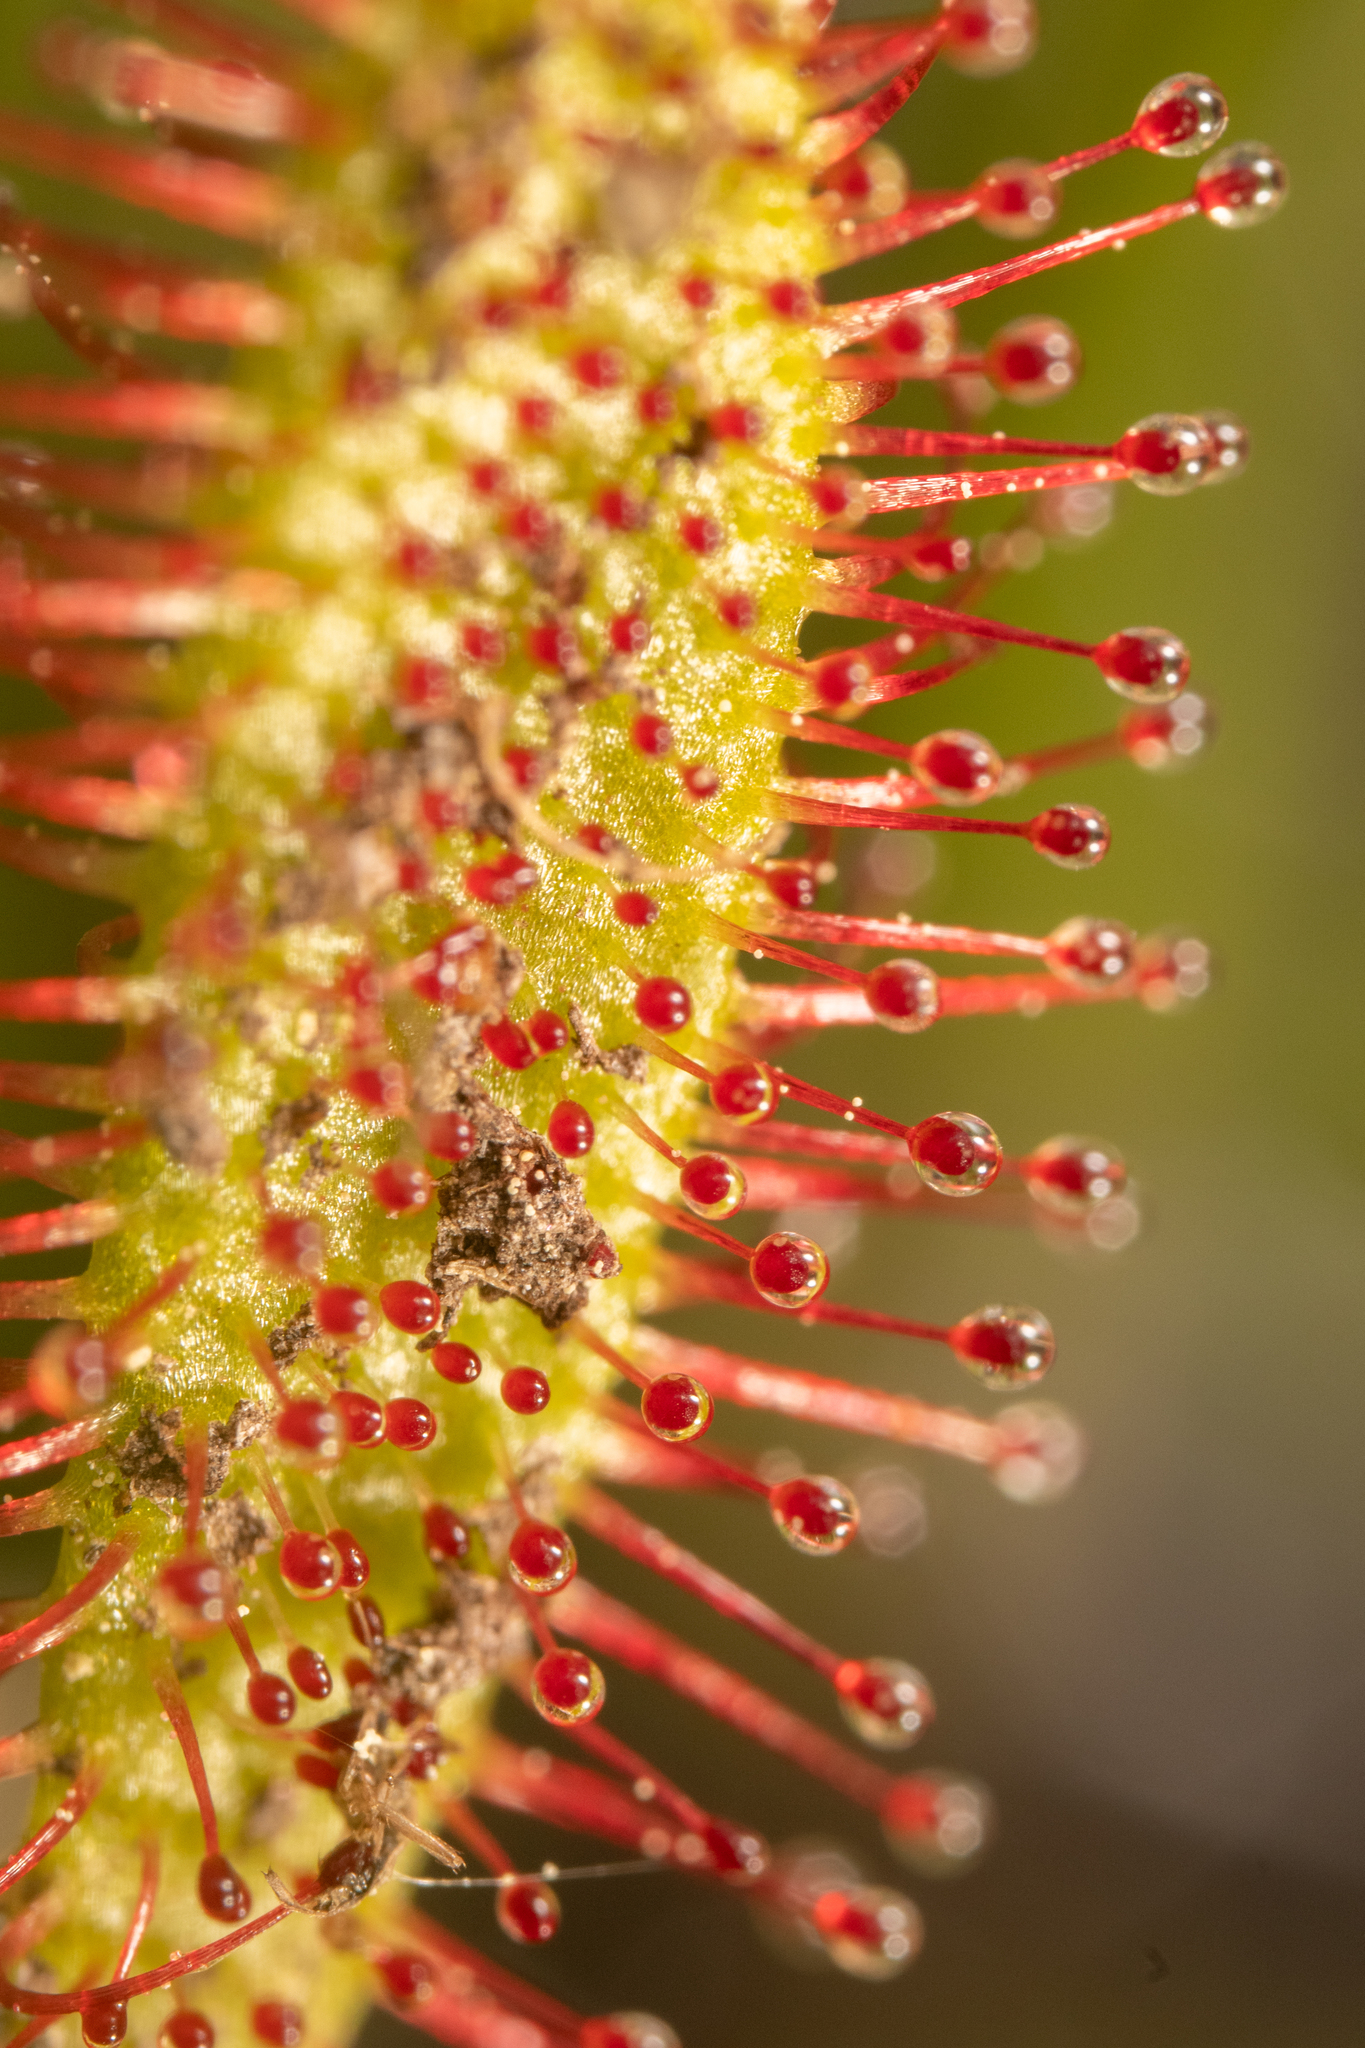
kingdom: Plantae
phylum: Tracheophyta
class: Magnoliopsida
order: Caryophyllales
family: Droseraceae
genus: Drosera
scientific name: Drosera anglica
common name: Great sundew
